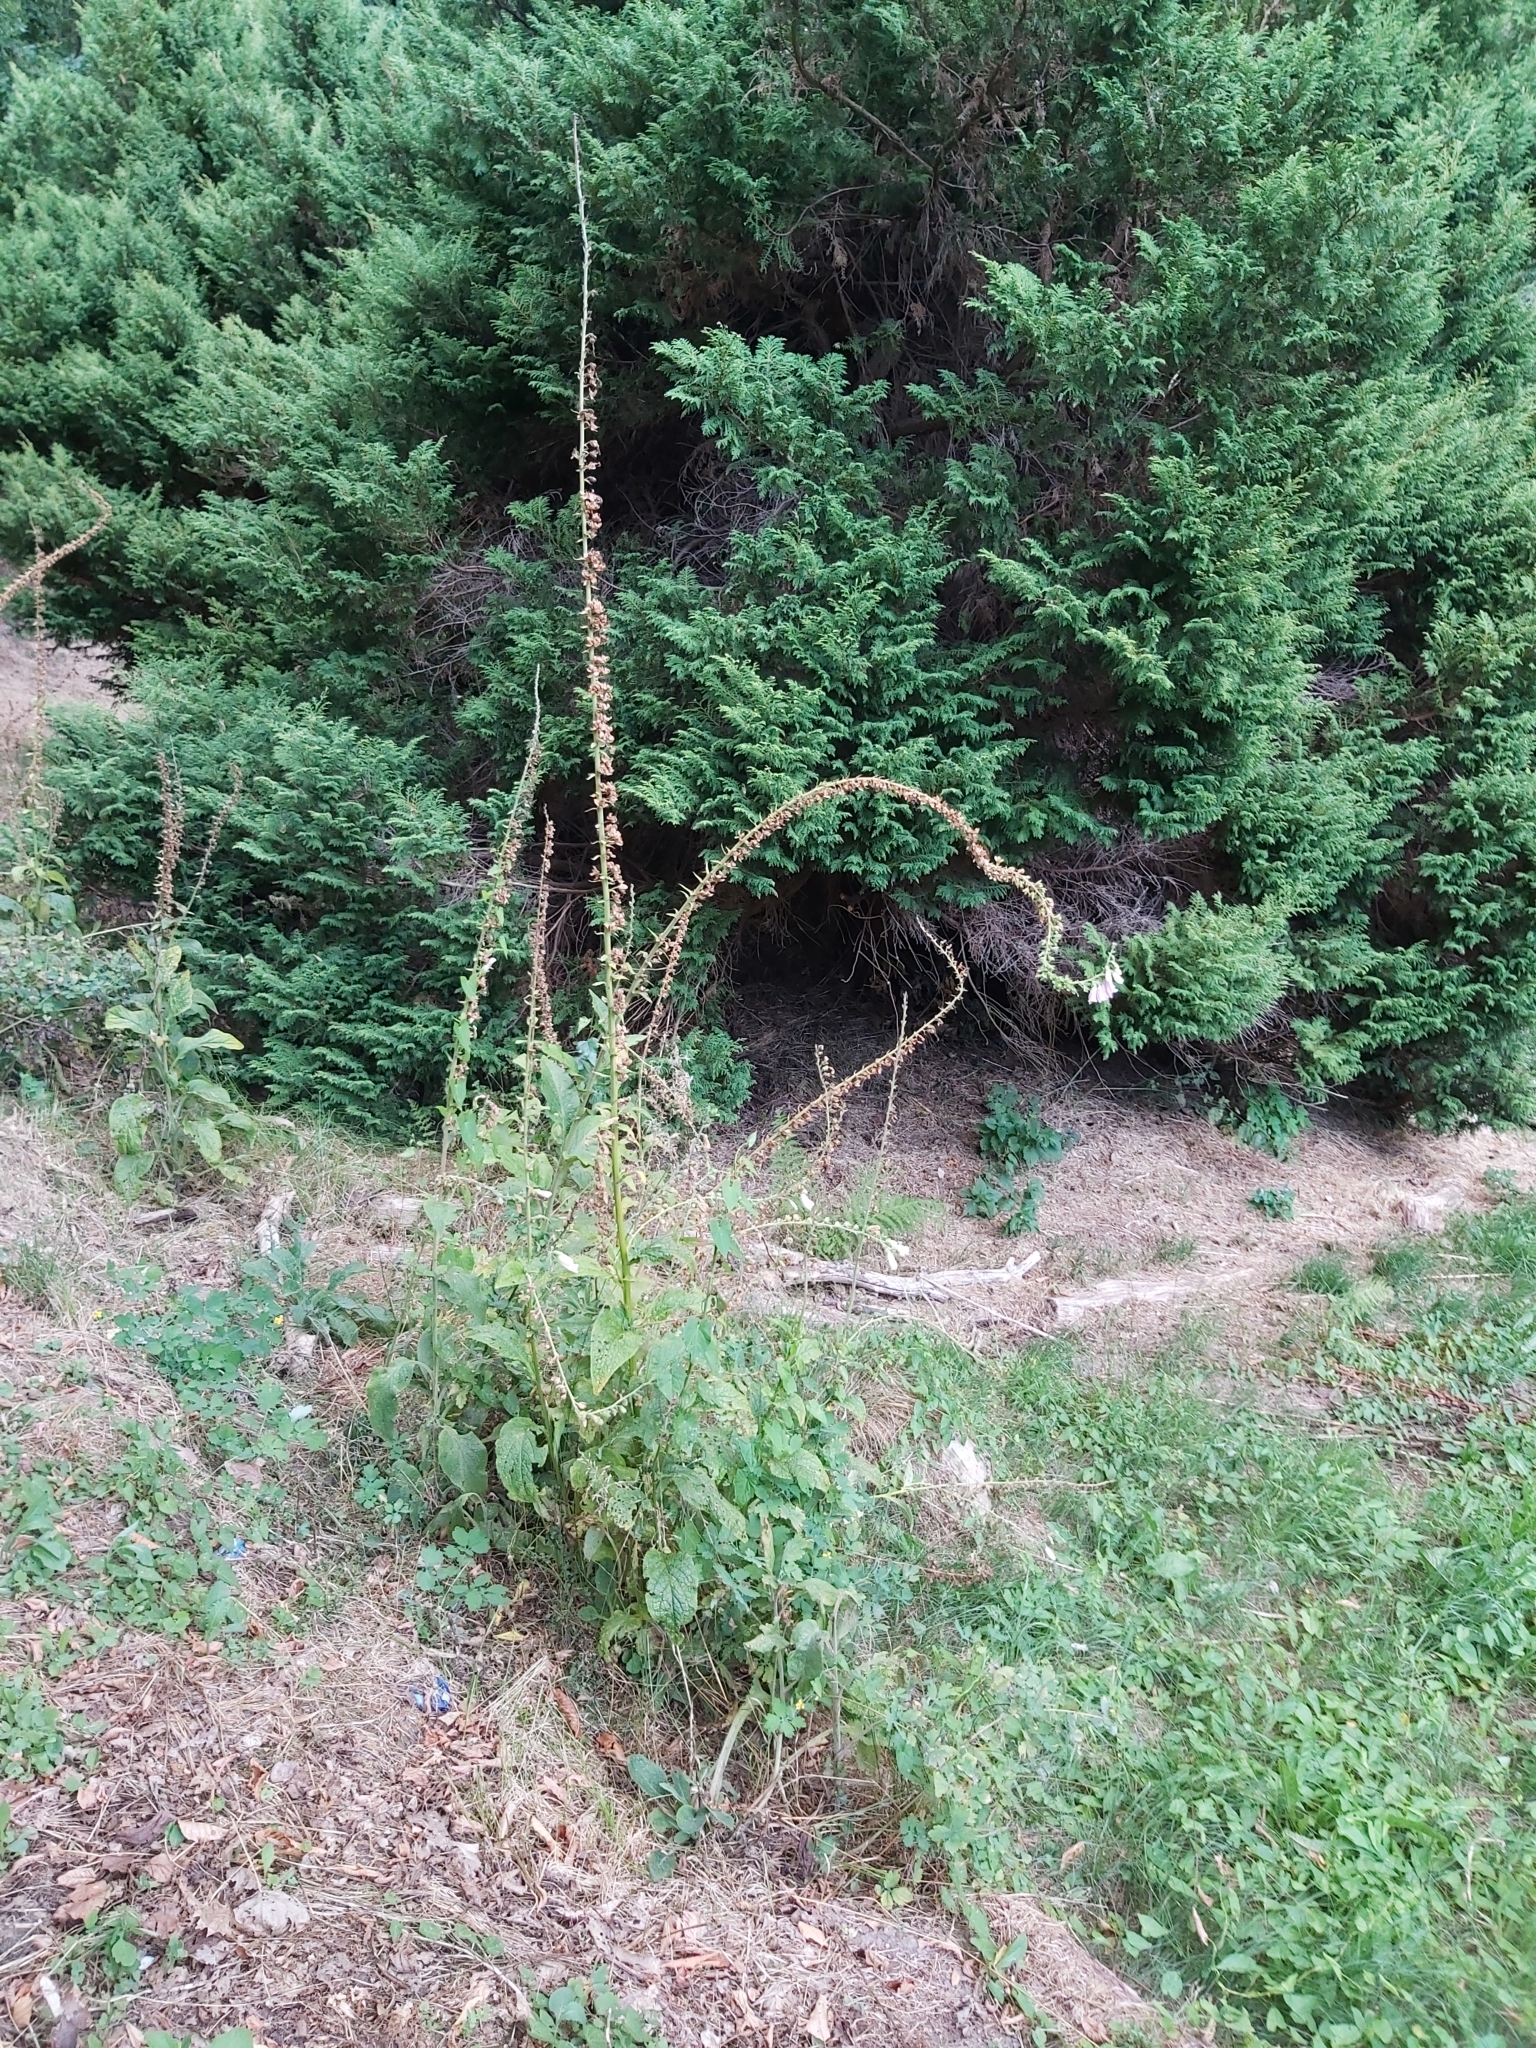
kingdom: Plantae
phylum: Tracheophyta
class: Magnoliopsida
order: Lamiales
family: Plantaginaceae
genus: Digitalis
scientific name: Digitalis purpurea
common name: Foxglove
